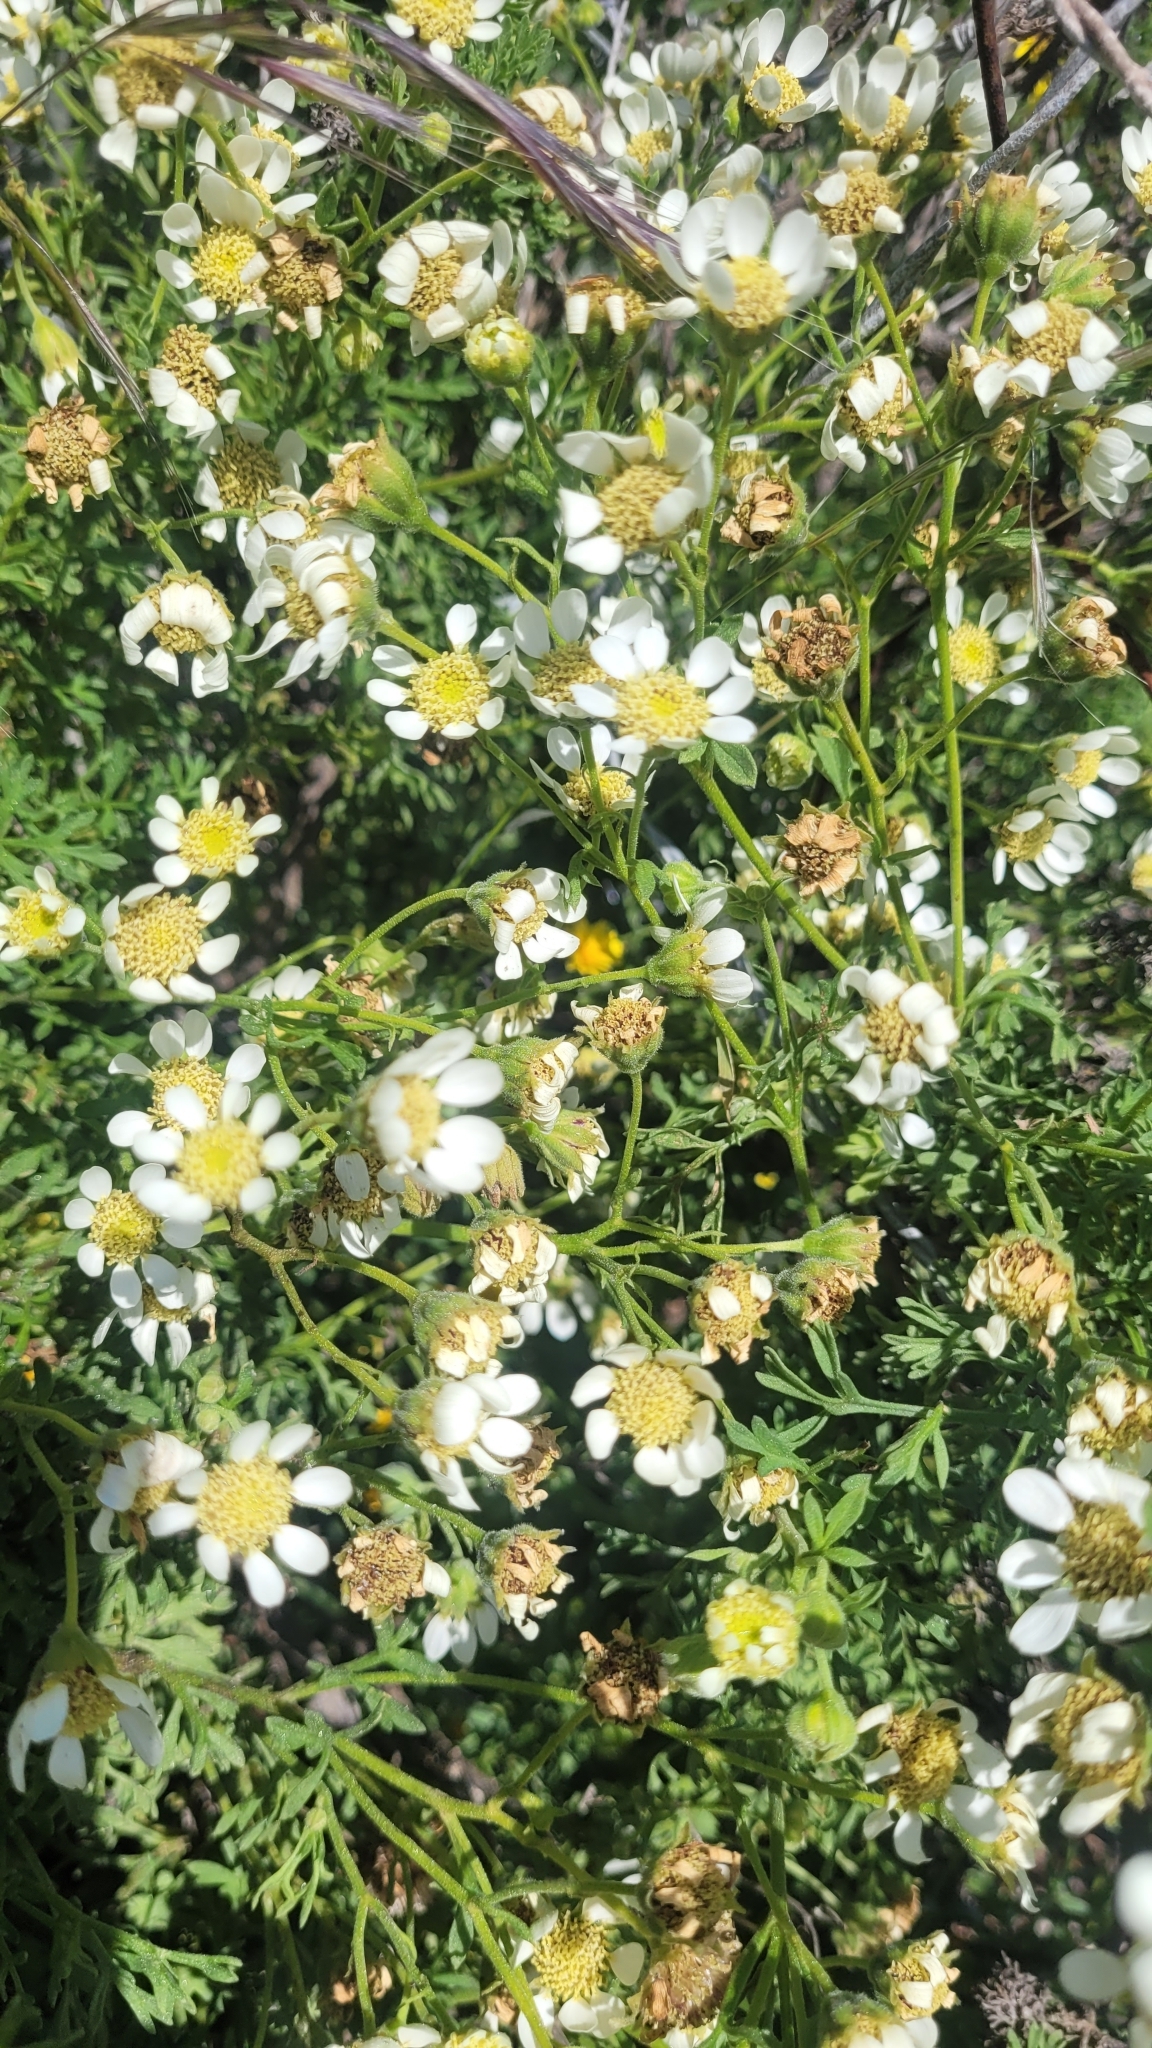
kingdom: Plantae
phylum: Tracheophyta
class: Magnoliopsida
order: Asterales
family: Asteraceae
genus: Bahia
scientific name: Bahia ambrosioides
